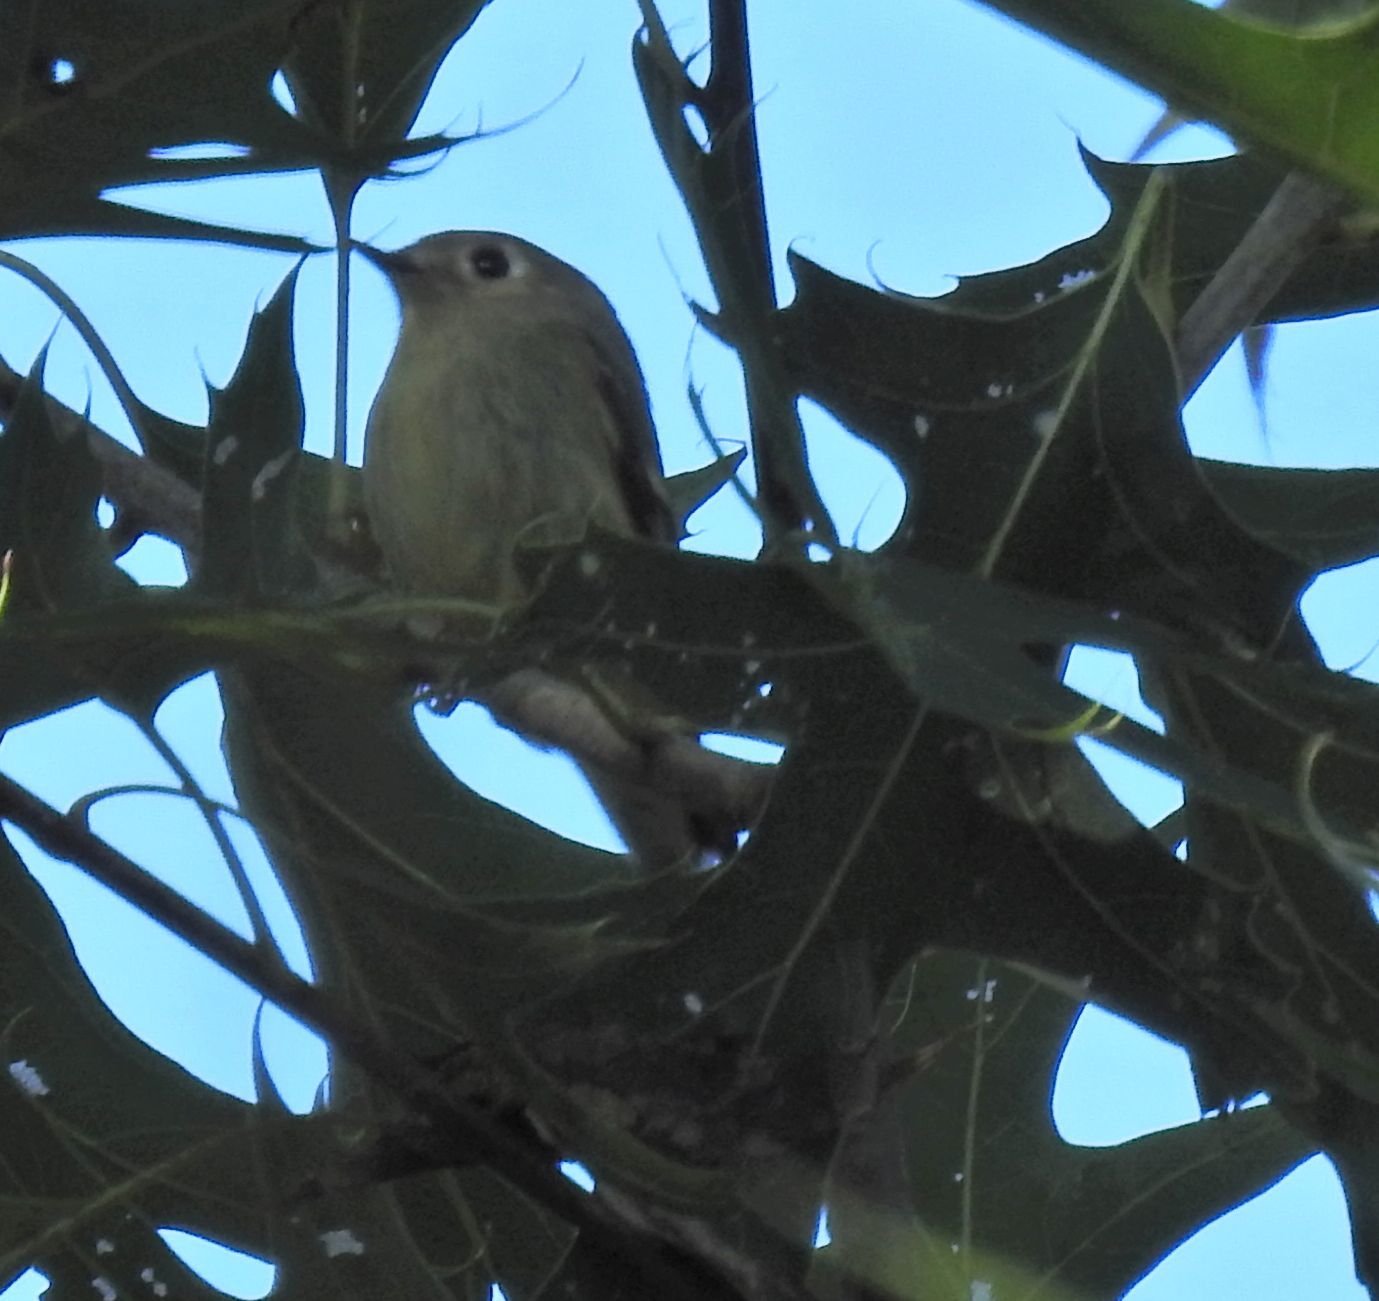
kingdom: Animalia
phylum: Chordata
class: Aves
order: Passeriformes
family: Regulidae
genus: Regulus
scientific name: Regulus calendula
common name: Ruby-crowned kinglet
